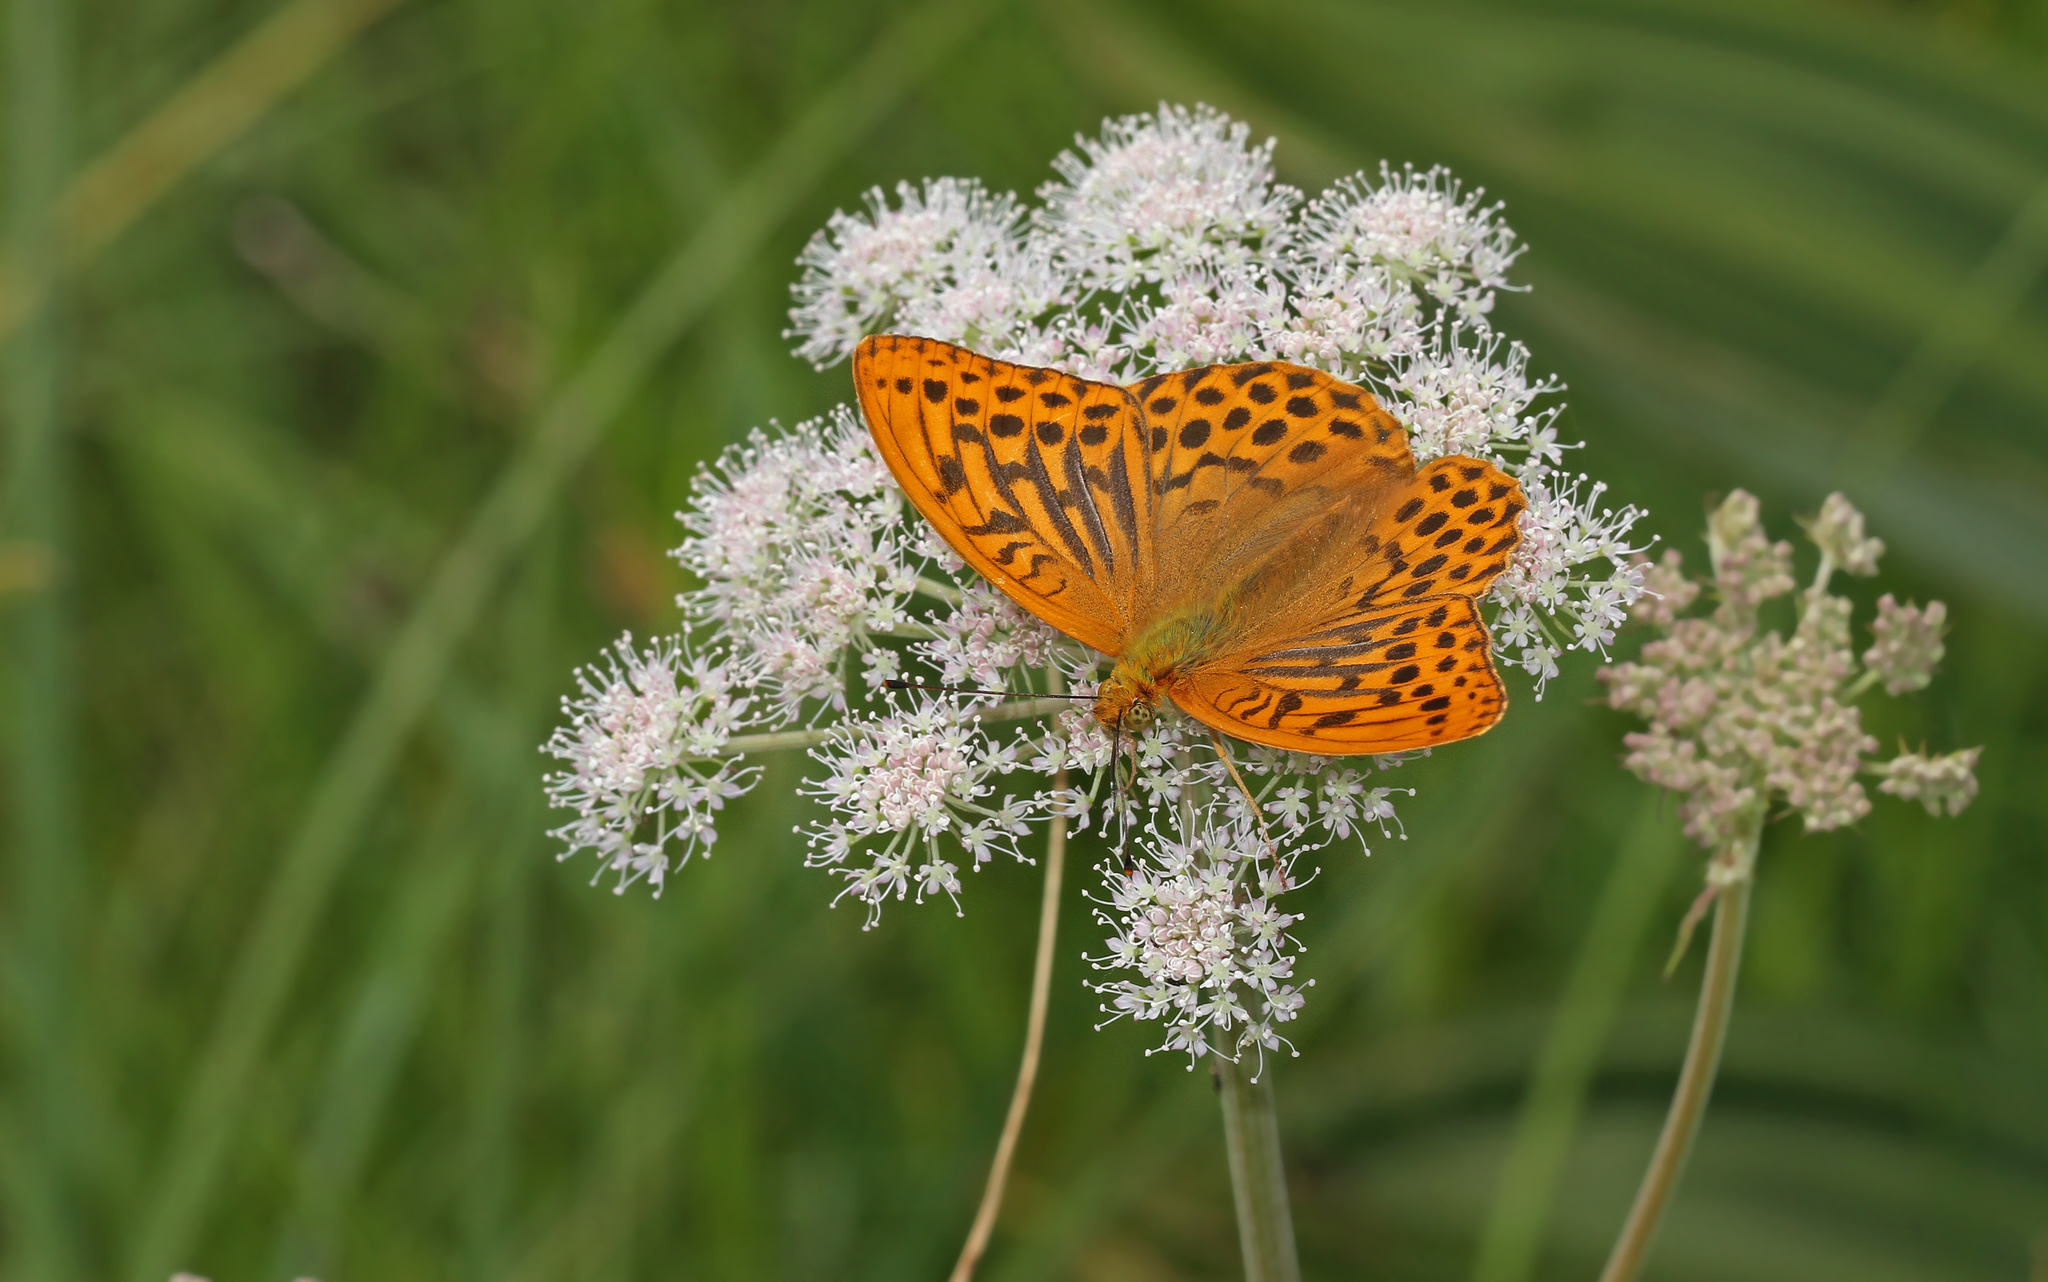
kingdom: Animalia
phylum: Arthropoda
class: Insecta
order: Lepidoptera
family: Nymphalidae
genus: Argynnis
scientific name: Argynnis paphia
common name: Silver-washed fritillary
